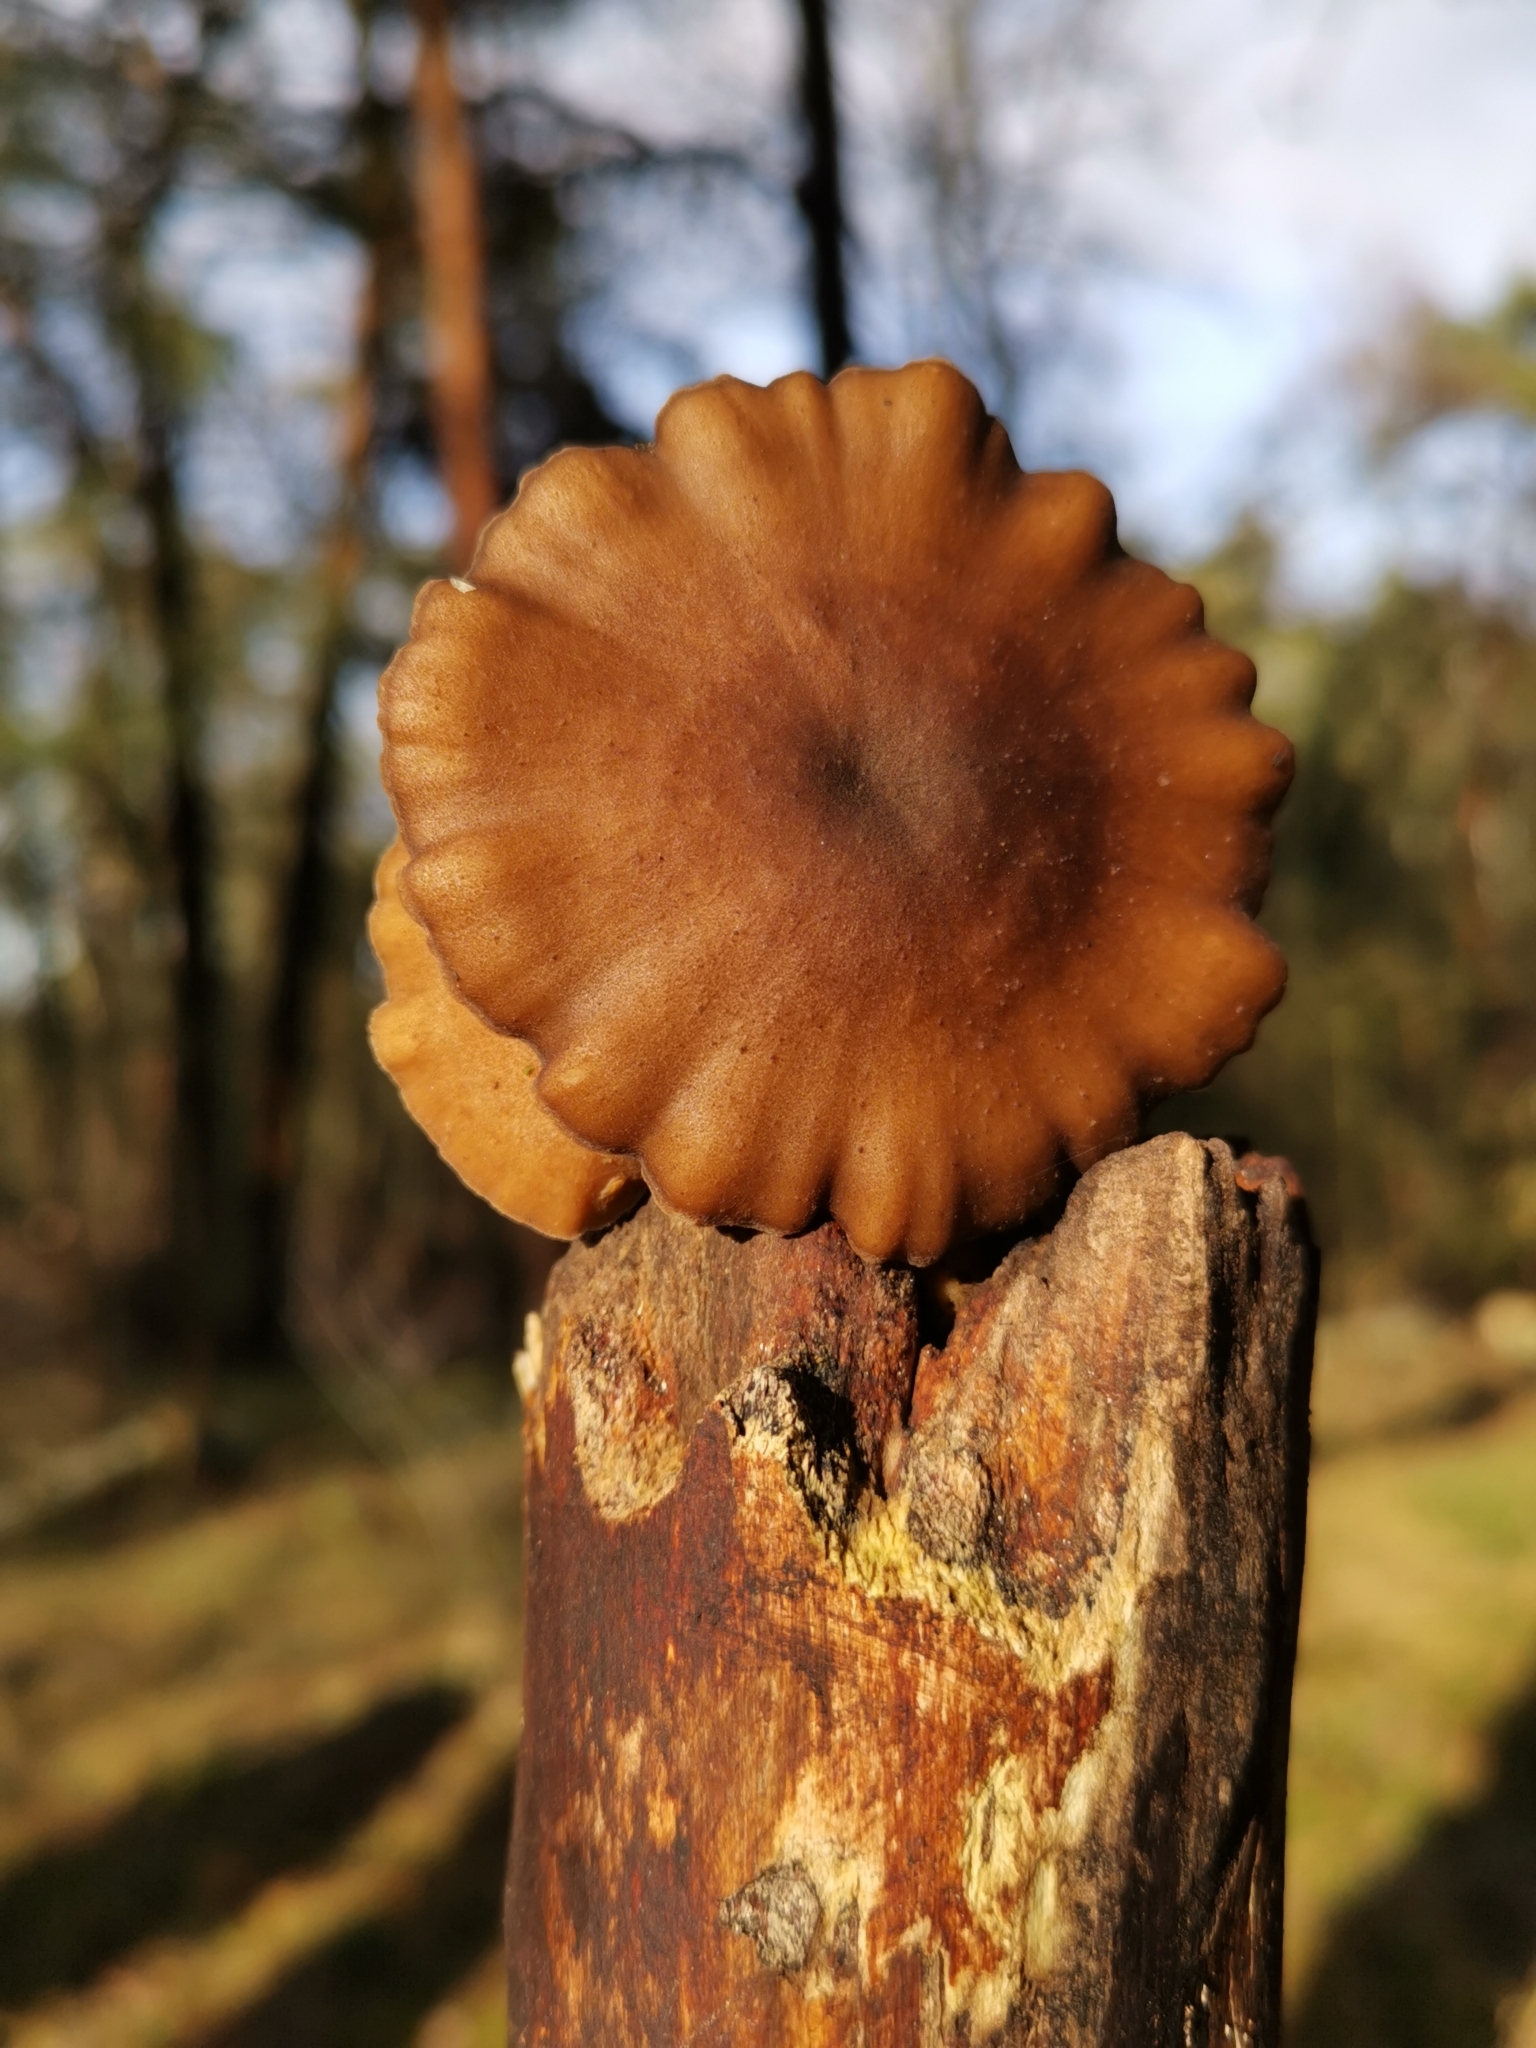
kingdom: Fungi
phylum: Basidiomycota
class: Agaricomycetes
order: Polyporales
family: Polyporaceae
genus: Lentinus
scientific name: Lentinus brumalis
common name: Winter polypore
